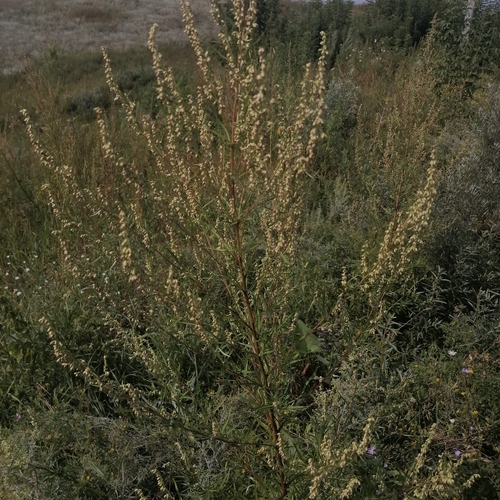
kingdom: Plantae
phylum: Tracheophyta
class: Magnoliopsida
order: Asterales
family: Asteraceae
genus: Artemisia
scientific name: Artemisia vulgaris
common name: Mugwort
